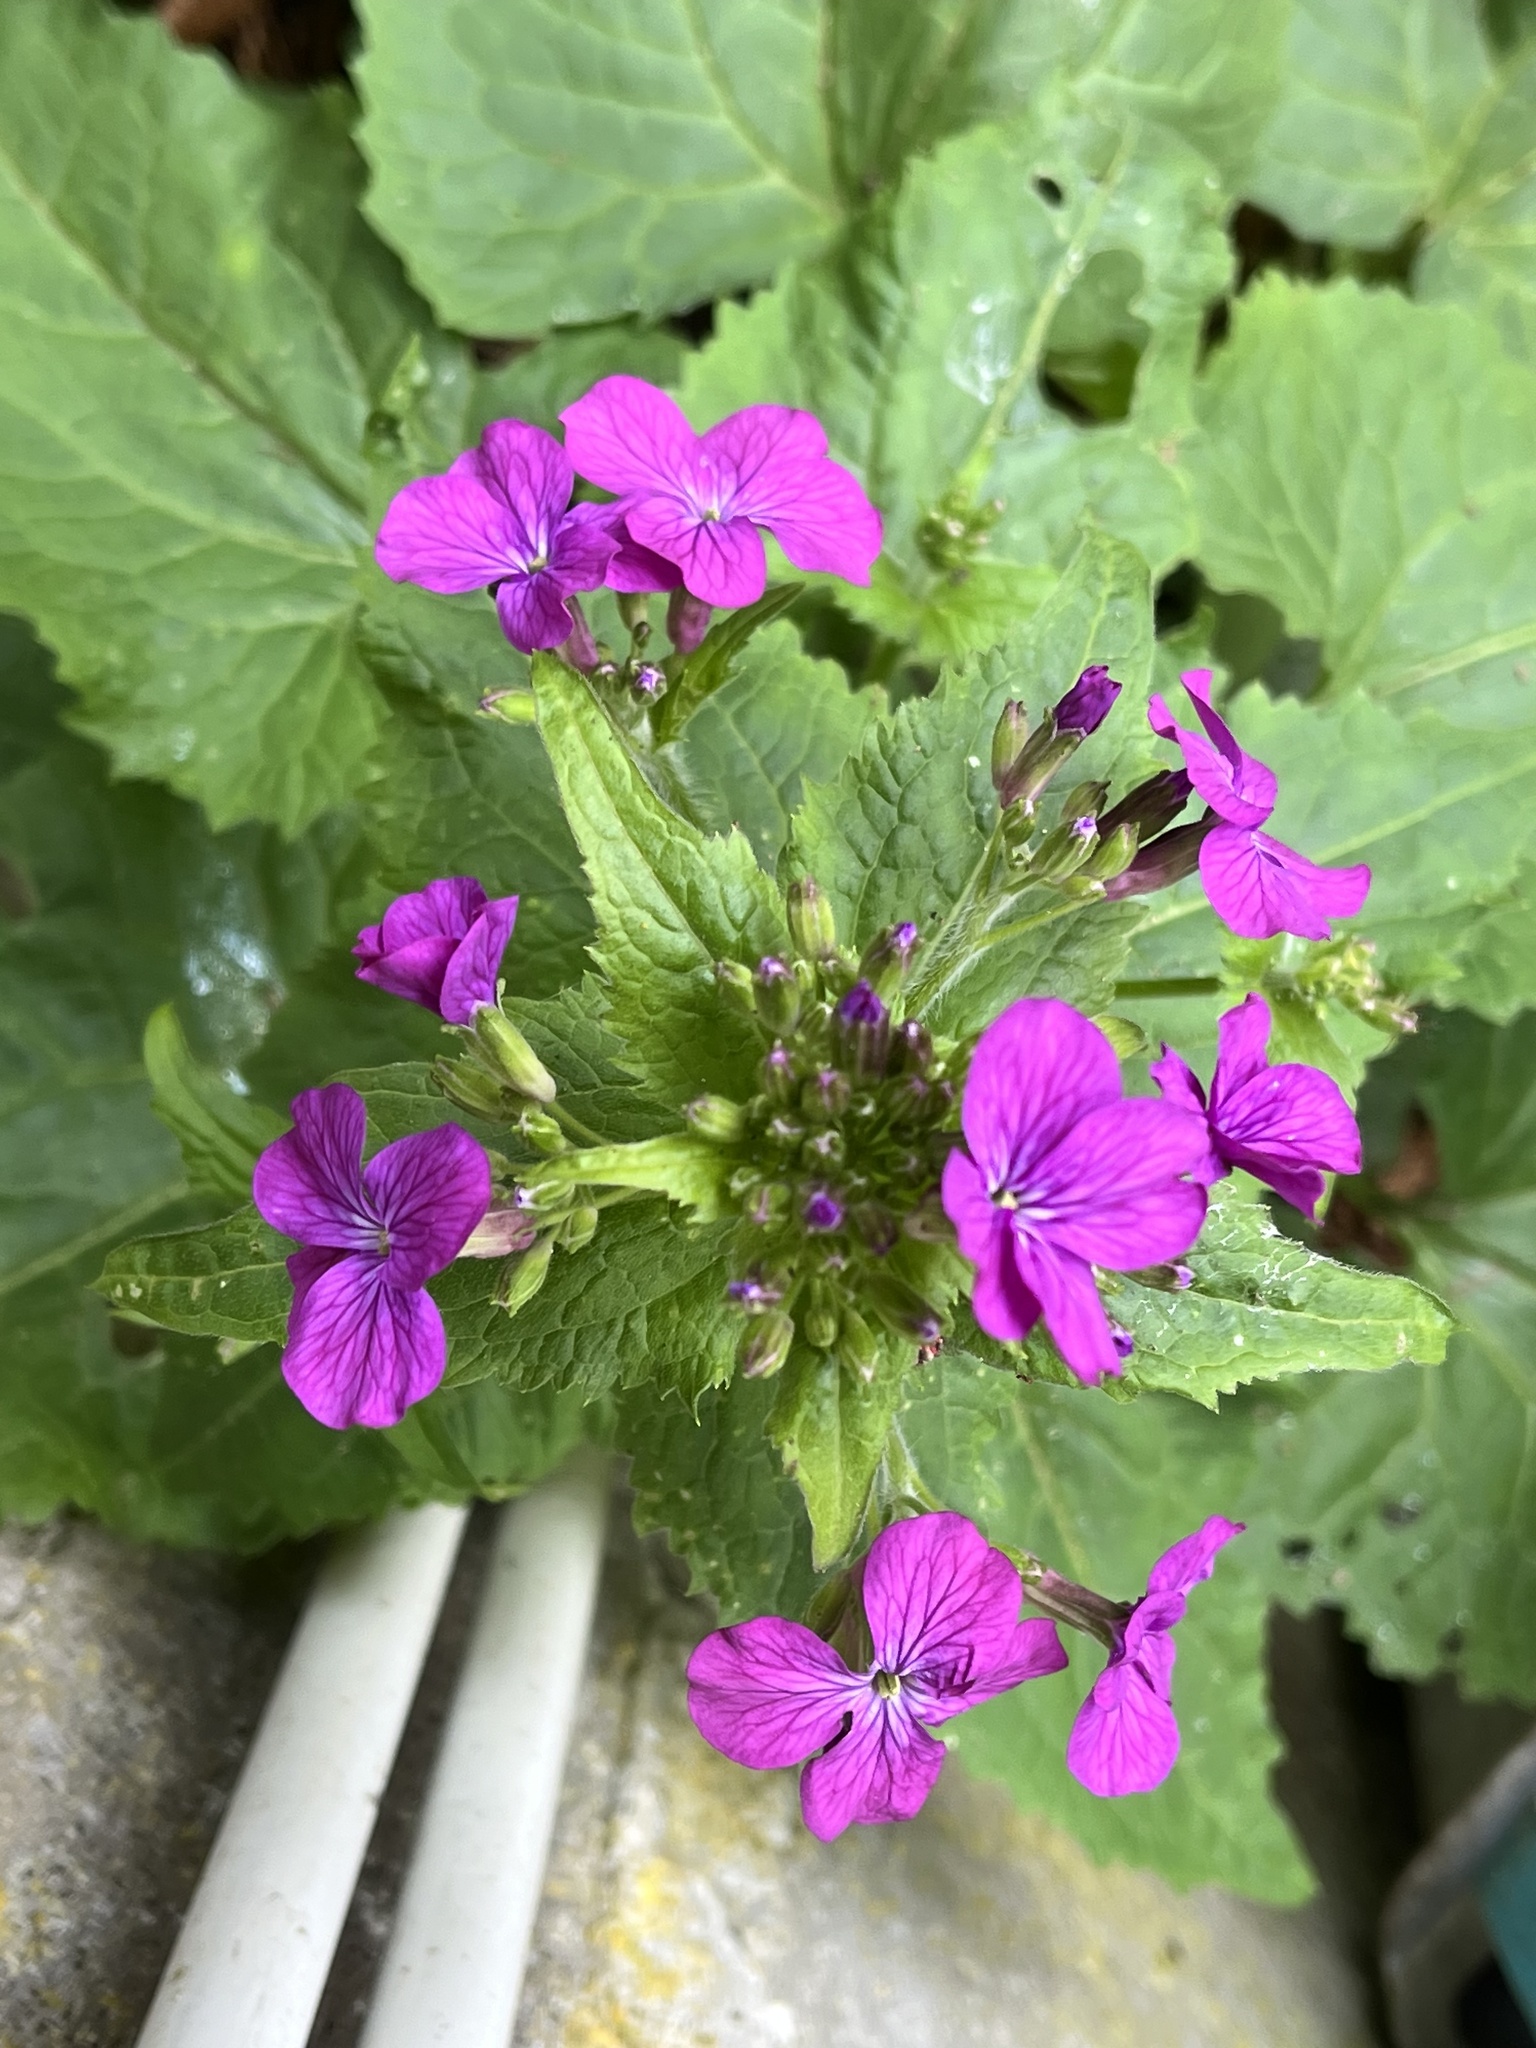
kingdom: Plantae
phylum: Tracheophyta
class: Magnoliopsida
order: Brassicales
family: Brassicaceae
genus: Lunaria
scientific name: Lunaria annua
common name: Honesty
